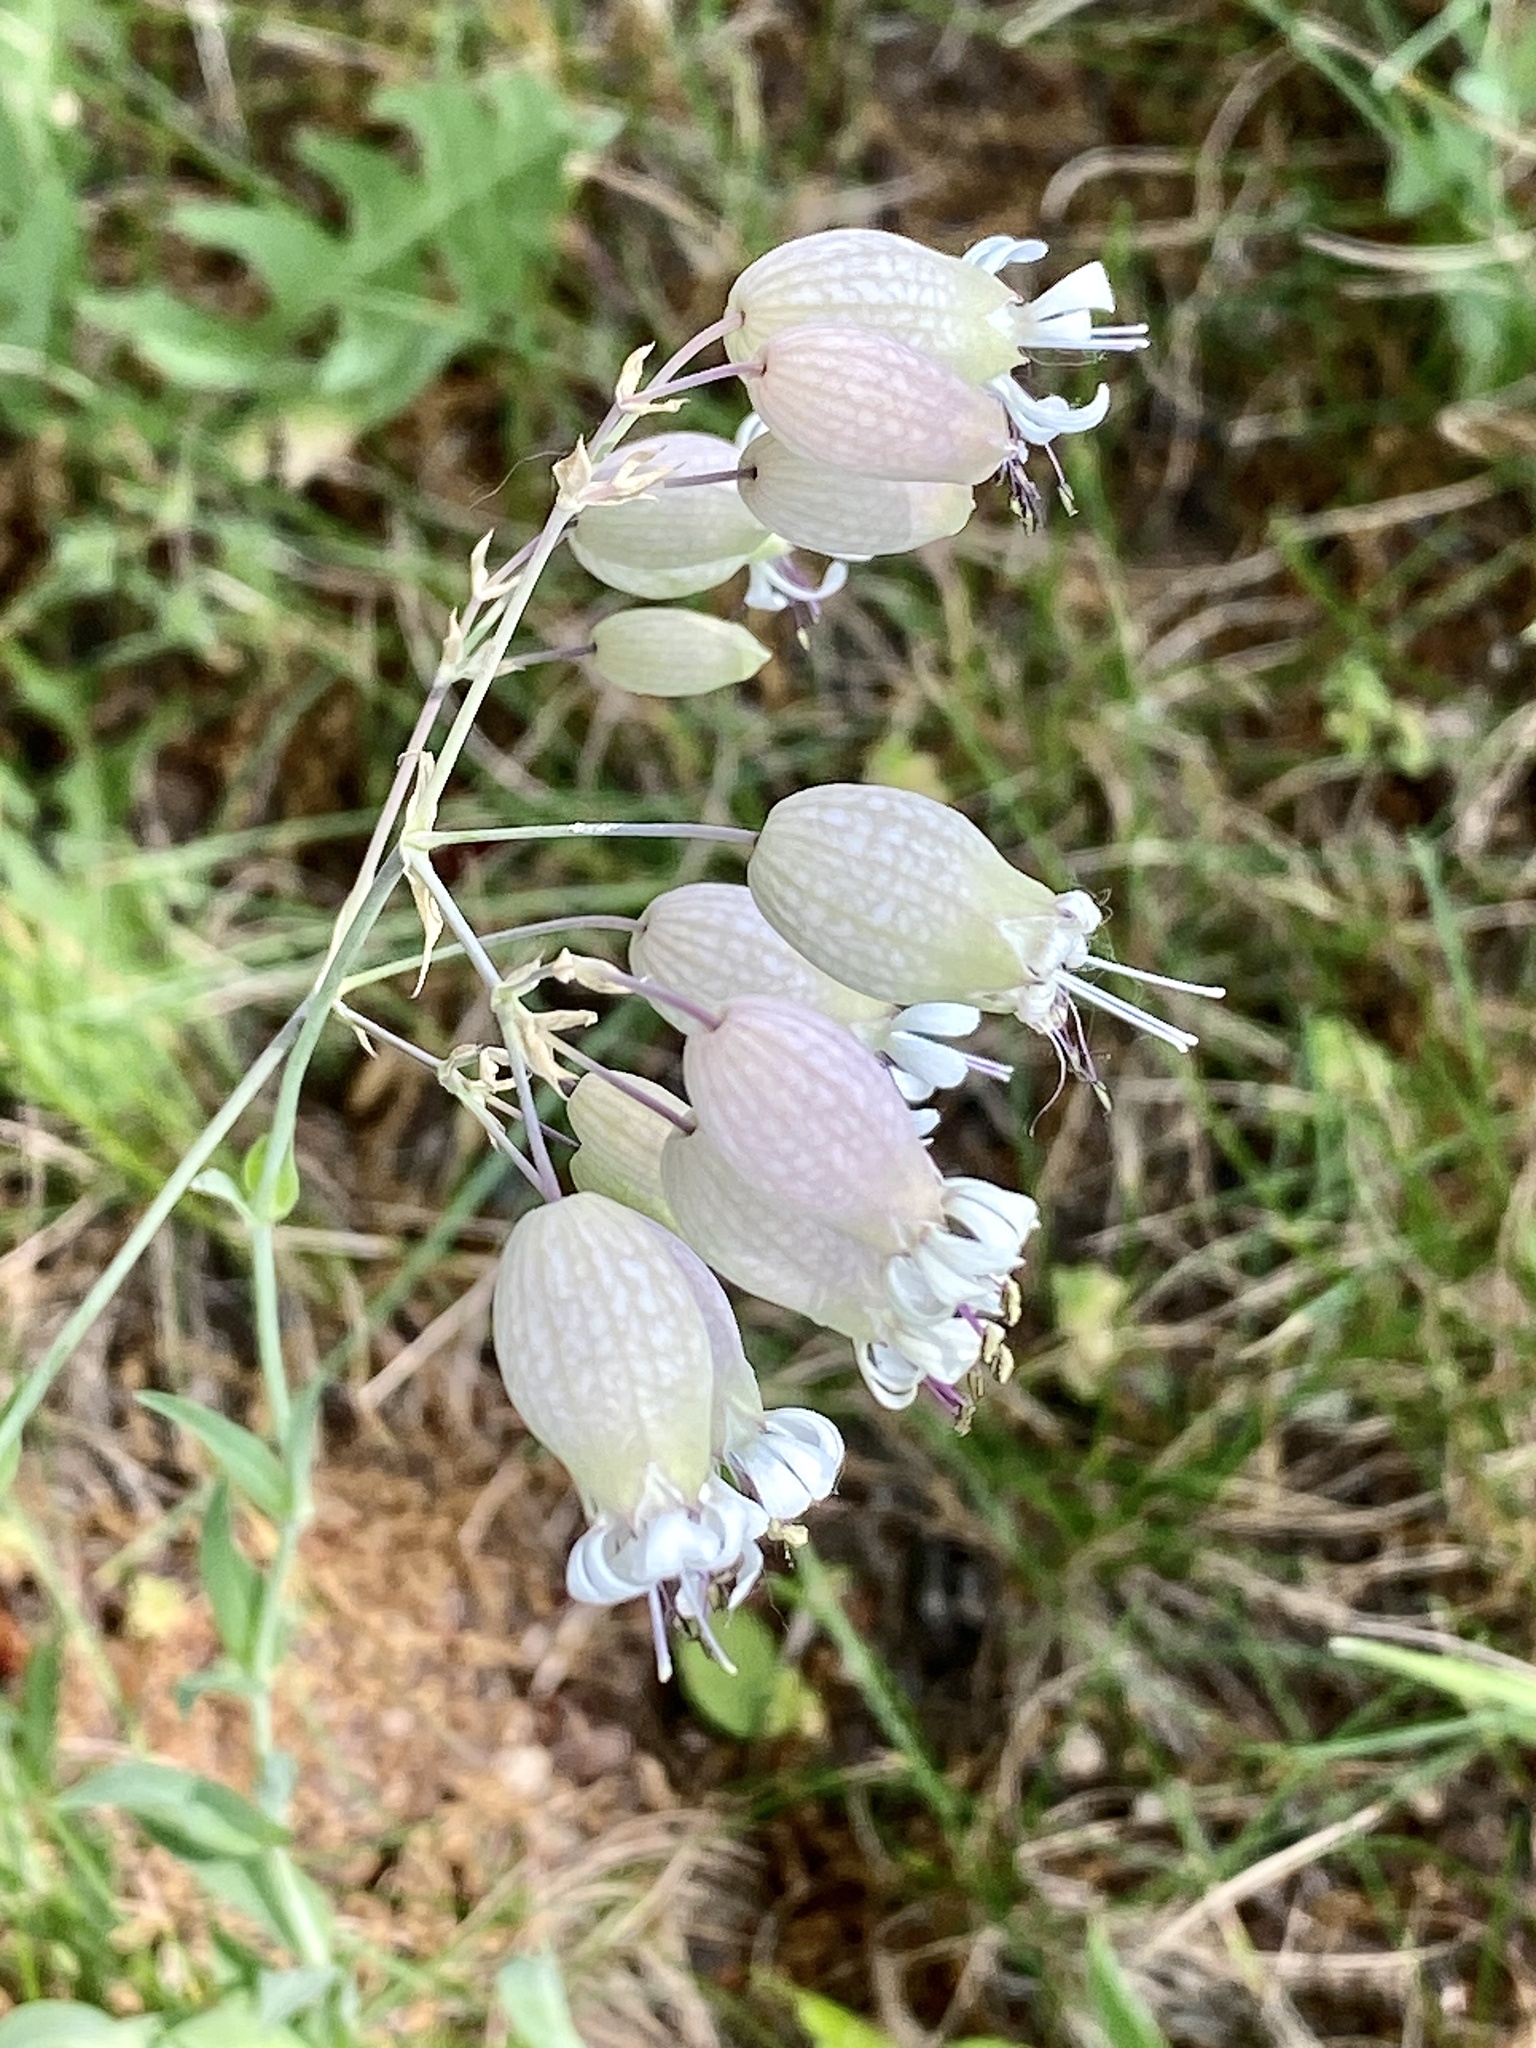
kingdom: Plantae
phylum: Tracheophyta
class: Magnoliopsida
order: Caryophyllales
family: Caryophyllaceae
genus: Silene
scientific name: Silene vulgaris
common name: Bladder campion
